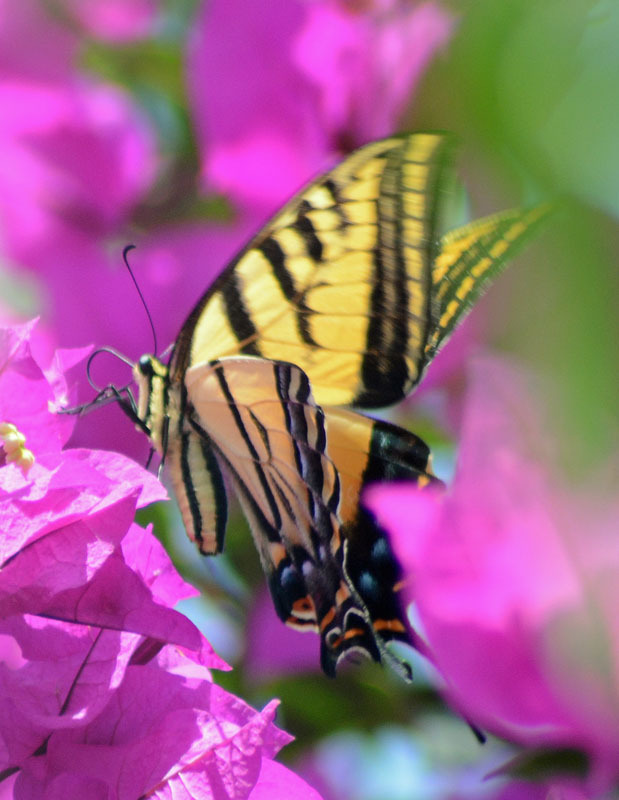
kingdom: Animalia
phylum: Arthropoda
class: Insecta
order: Lepidoptera
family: Papilionidae
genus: Papilio
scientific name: Papilio multicaudata
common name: Two-tailed tiger swallowtail
